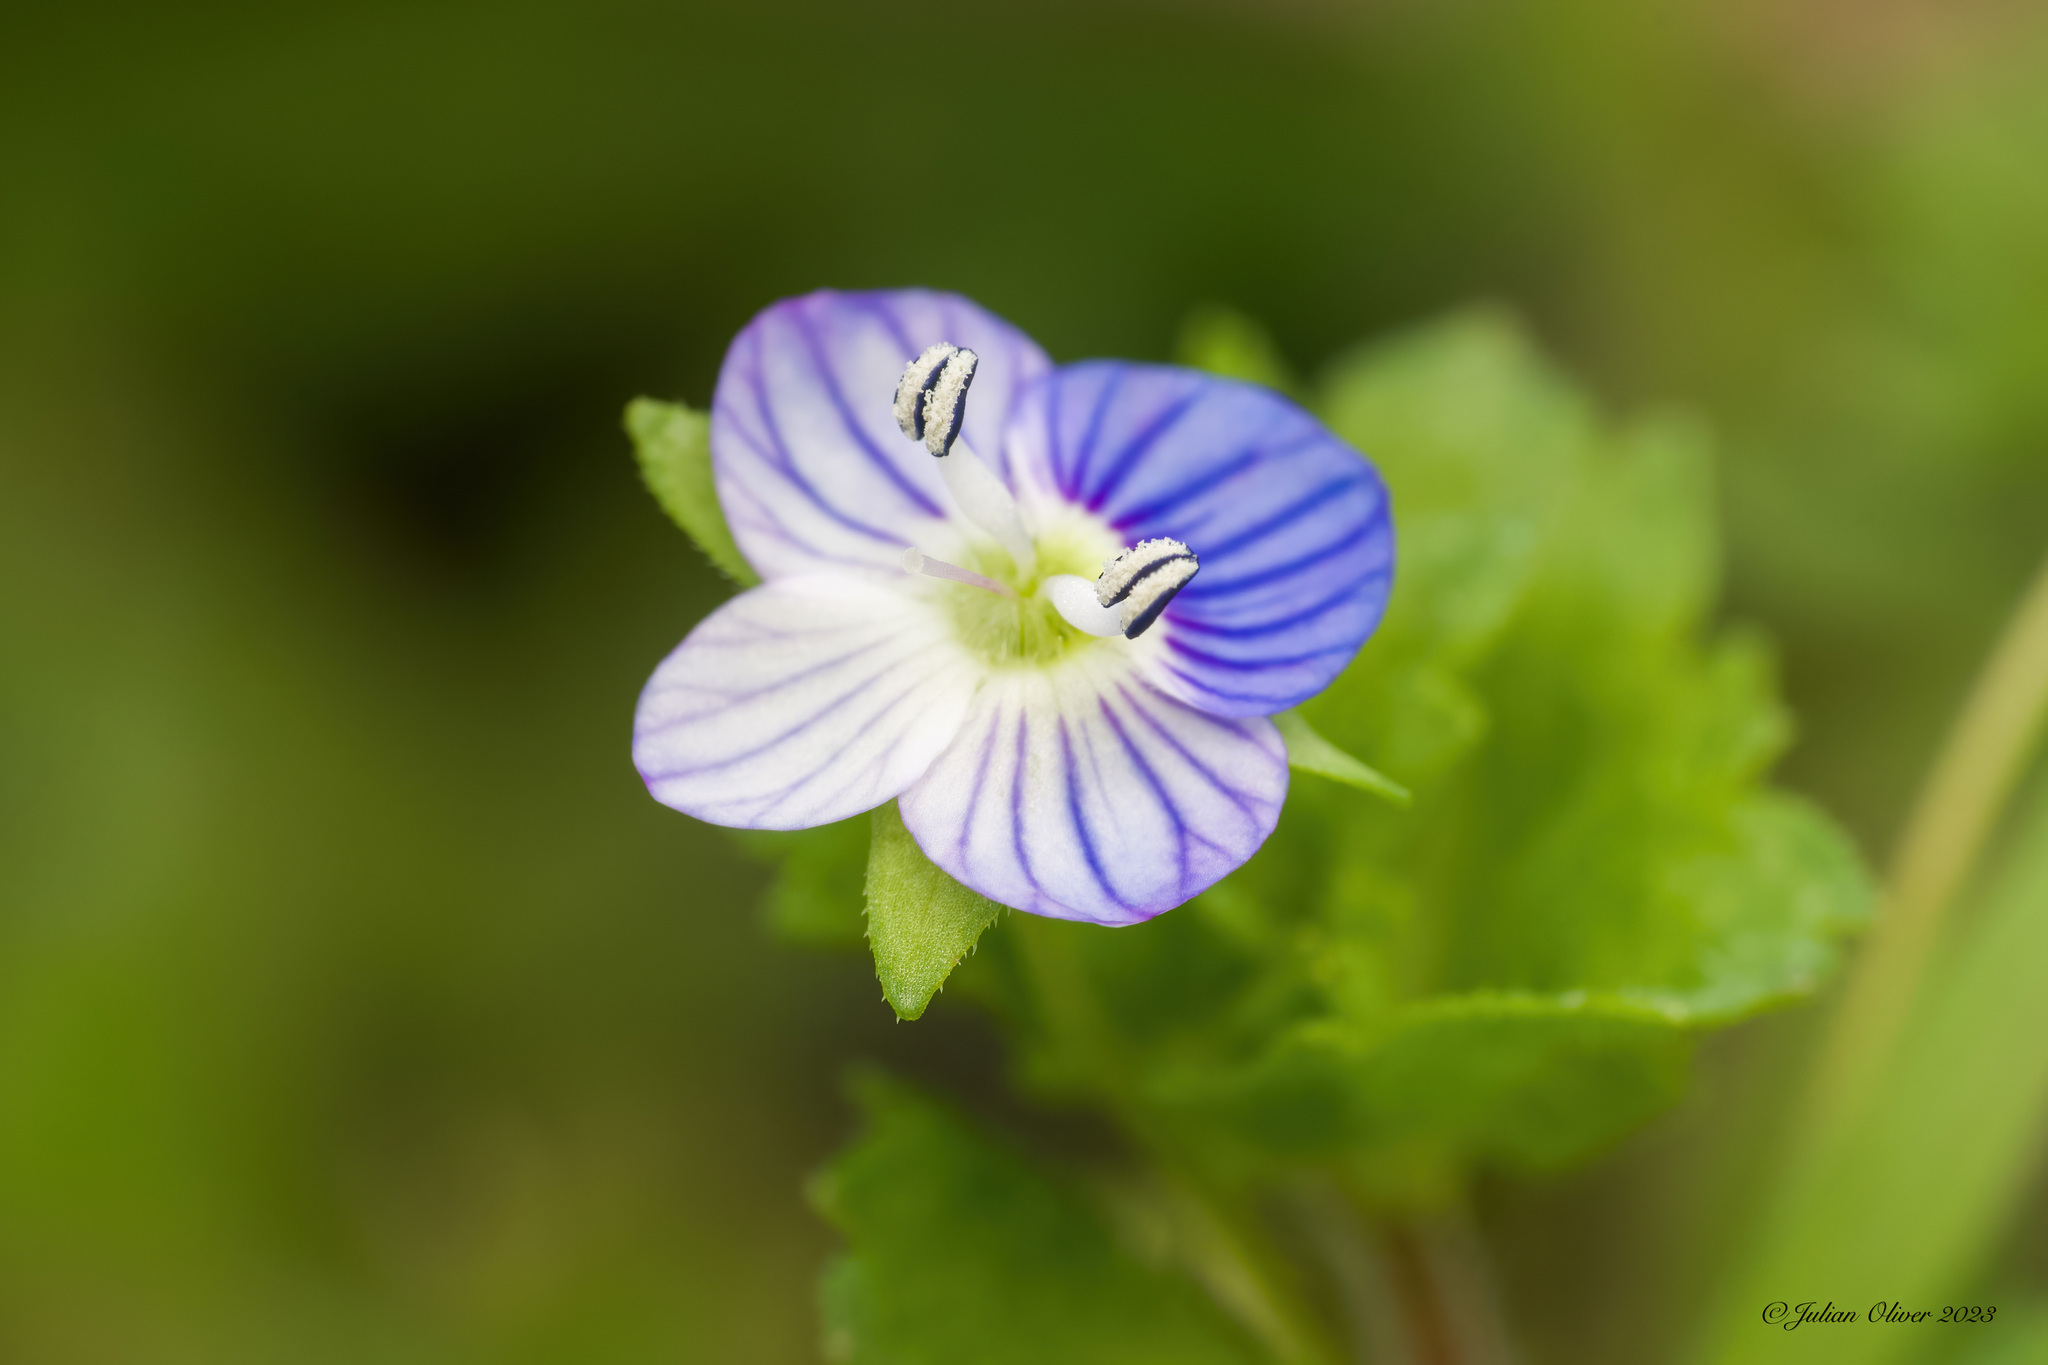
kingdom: Plantae
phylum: Tracheophyta
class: Magnoliopsida
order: Lamiales
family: Plantaginaceae
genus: Veronica
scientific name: Veronica persica
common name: Common field-speedwell
